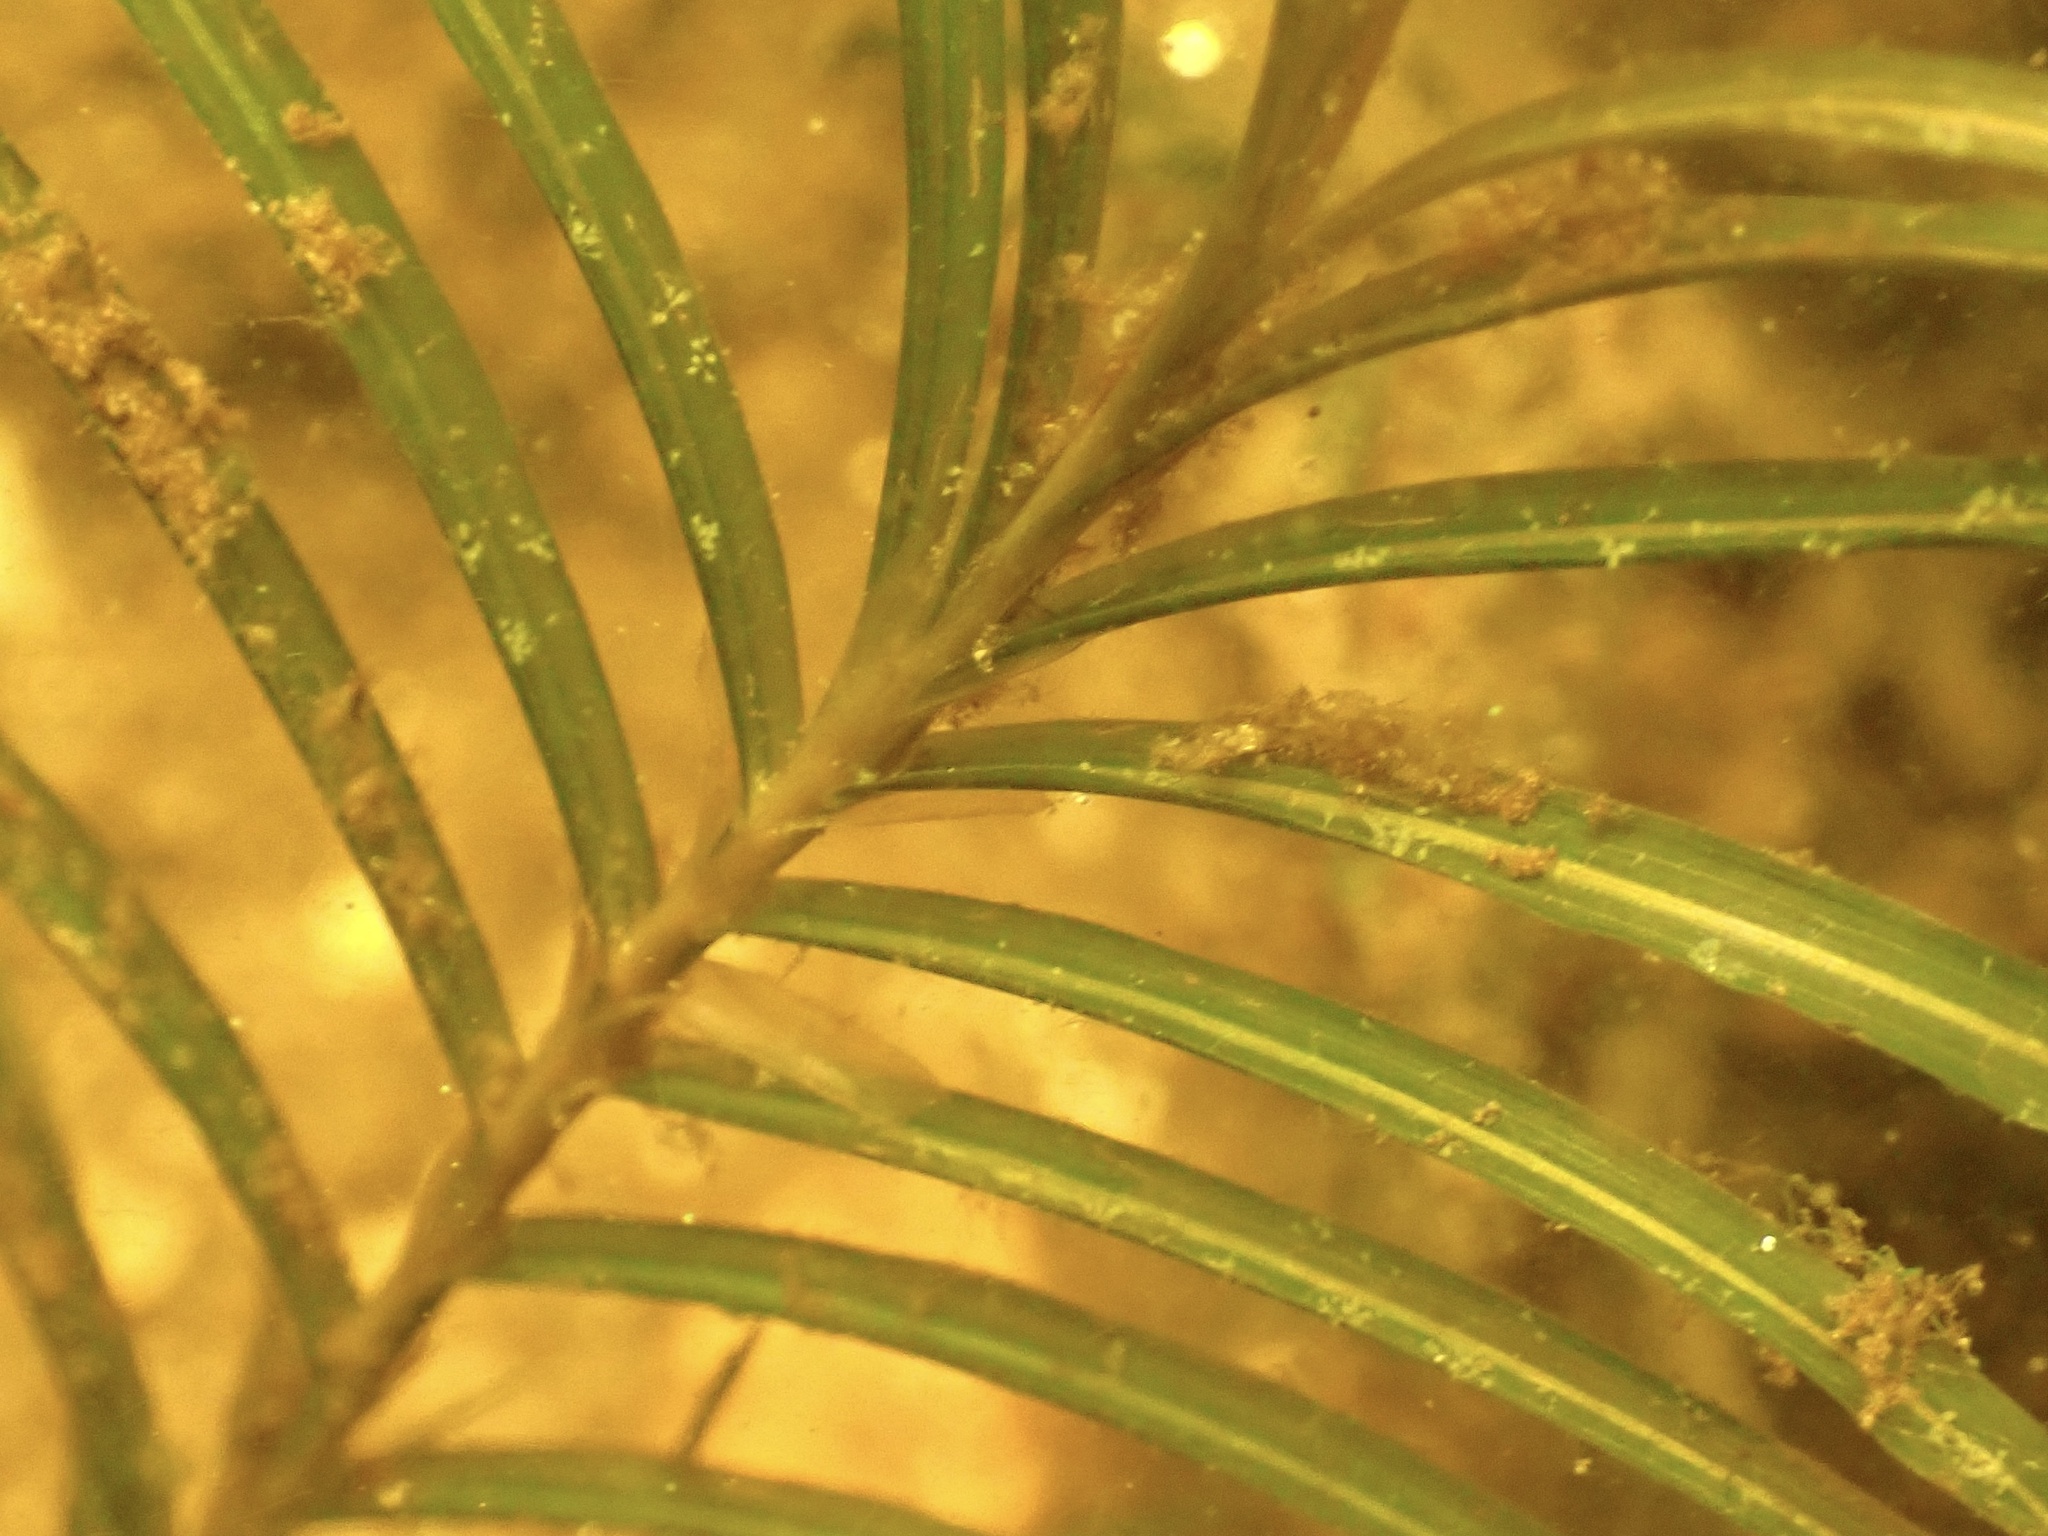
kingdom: Plantae
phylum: Tracheophyta
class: Liliopsida
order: Alismatales
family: Potamogetonaceae
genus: Potamogeton
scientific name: Potamogeton robbinsii
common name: Fern pondweed
